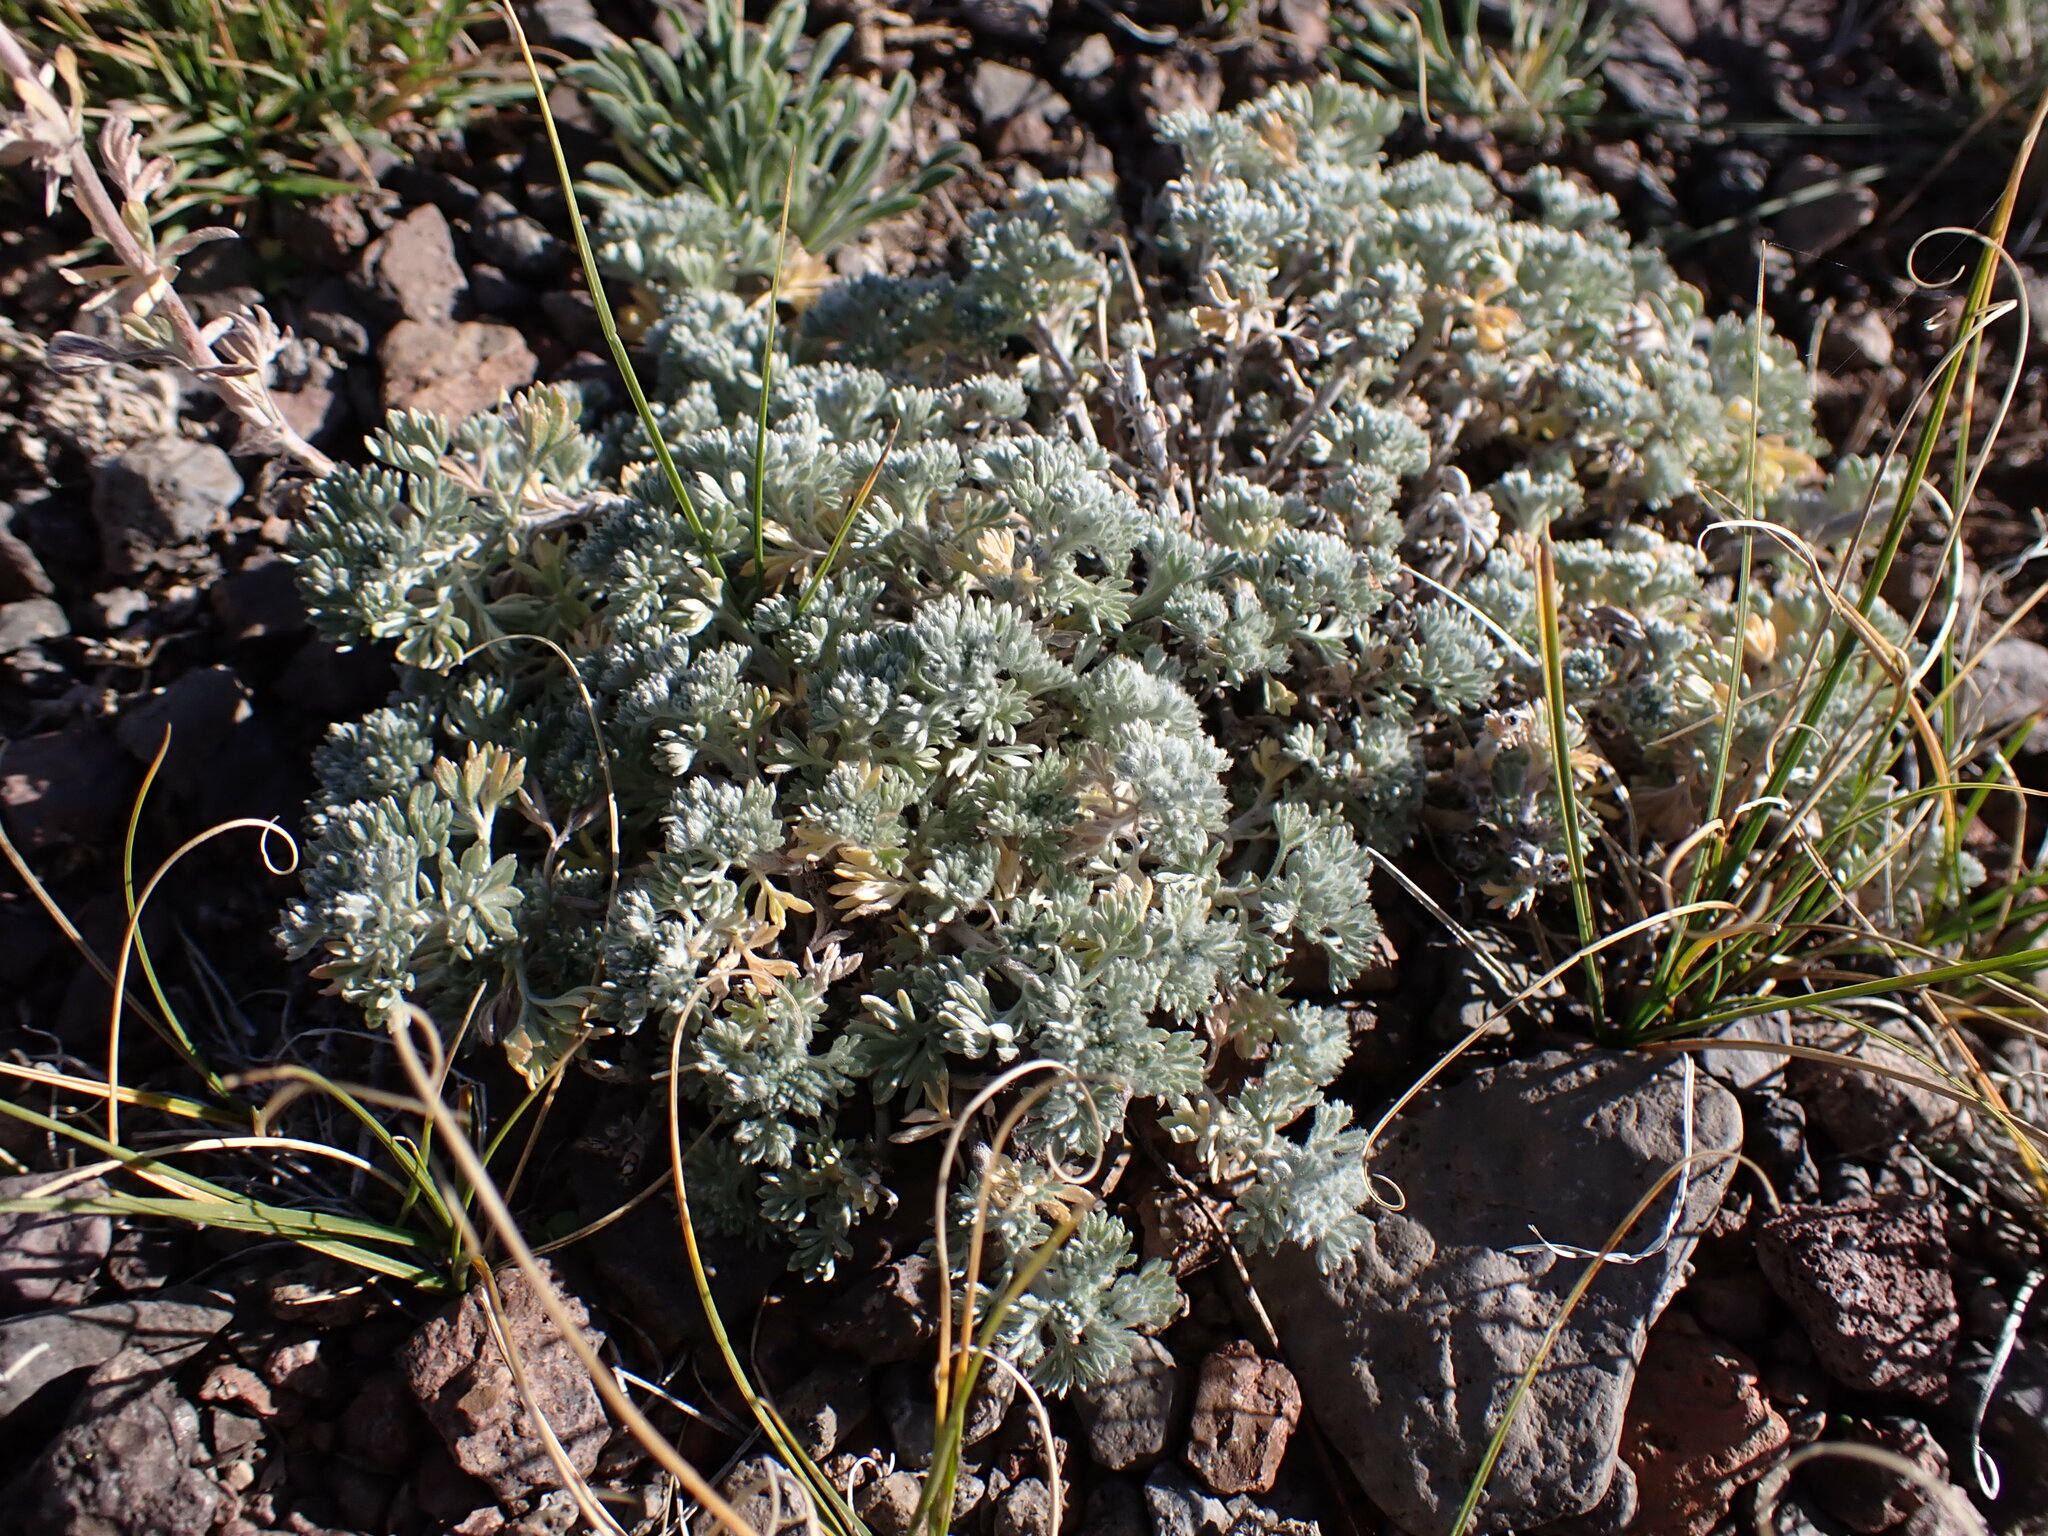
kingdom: Plantae
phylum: Tracheophyta
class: Magnoliopsida
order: Asterales
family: Asteraceae
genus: Artemisia
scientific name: Artemisia frigida
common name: Prairie sagewort
